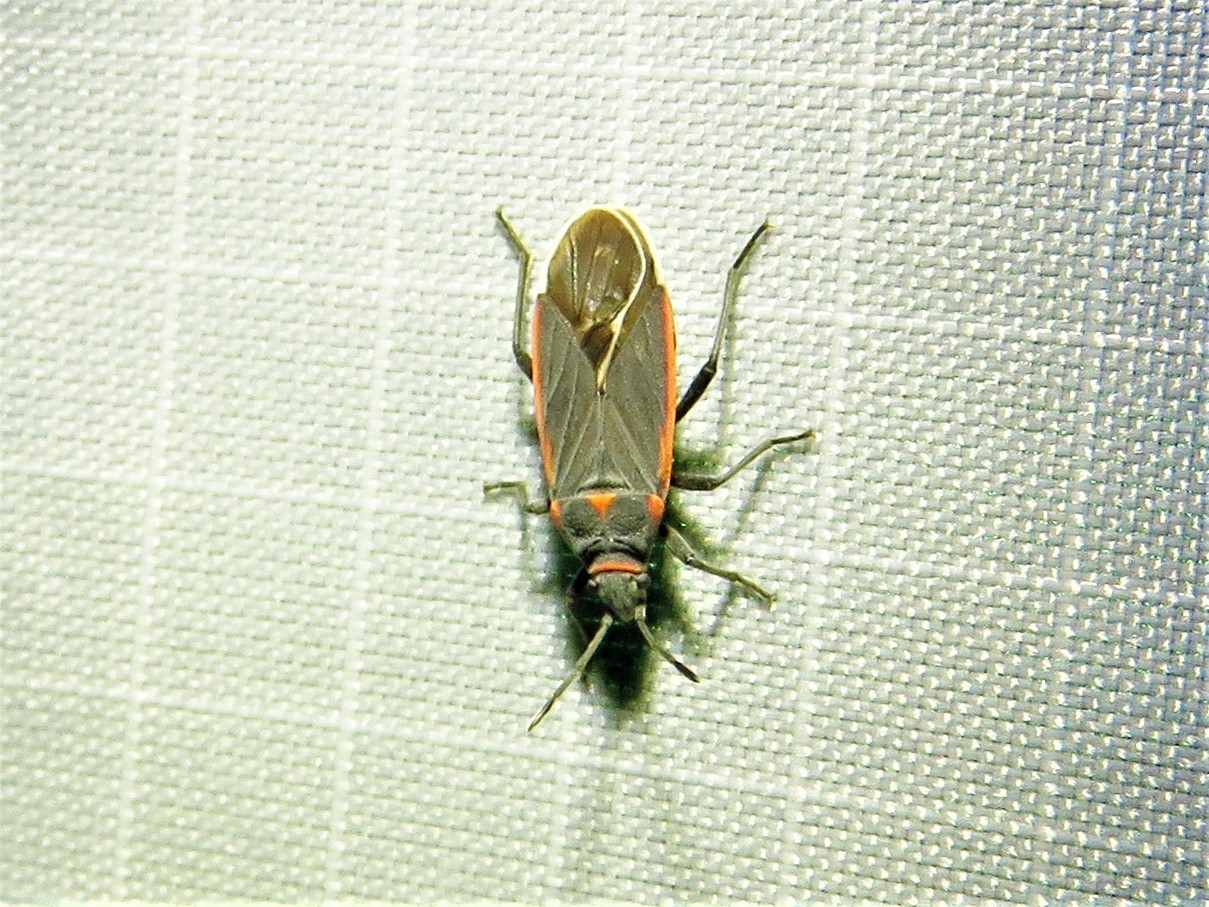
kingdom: Animalia
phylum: Arthropoda
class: Insecta
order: Hemiptera
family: Lygaeidae
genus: Melacoryphus
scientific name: Melacoryphus lateralis
